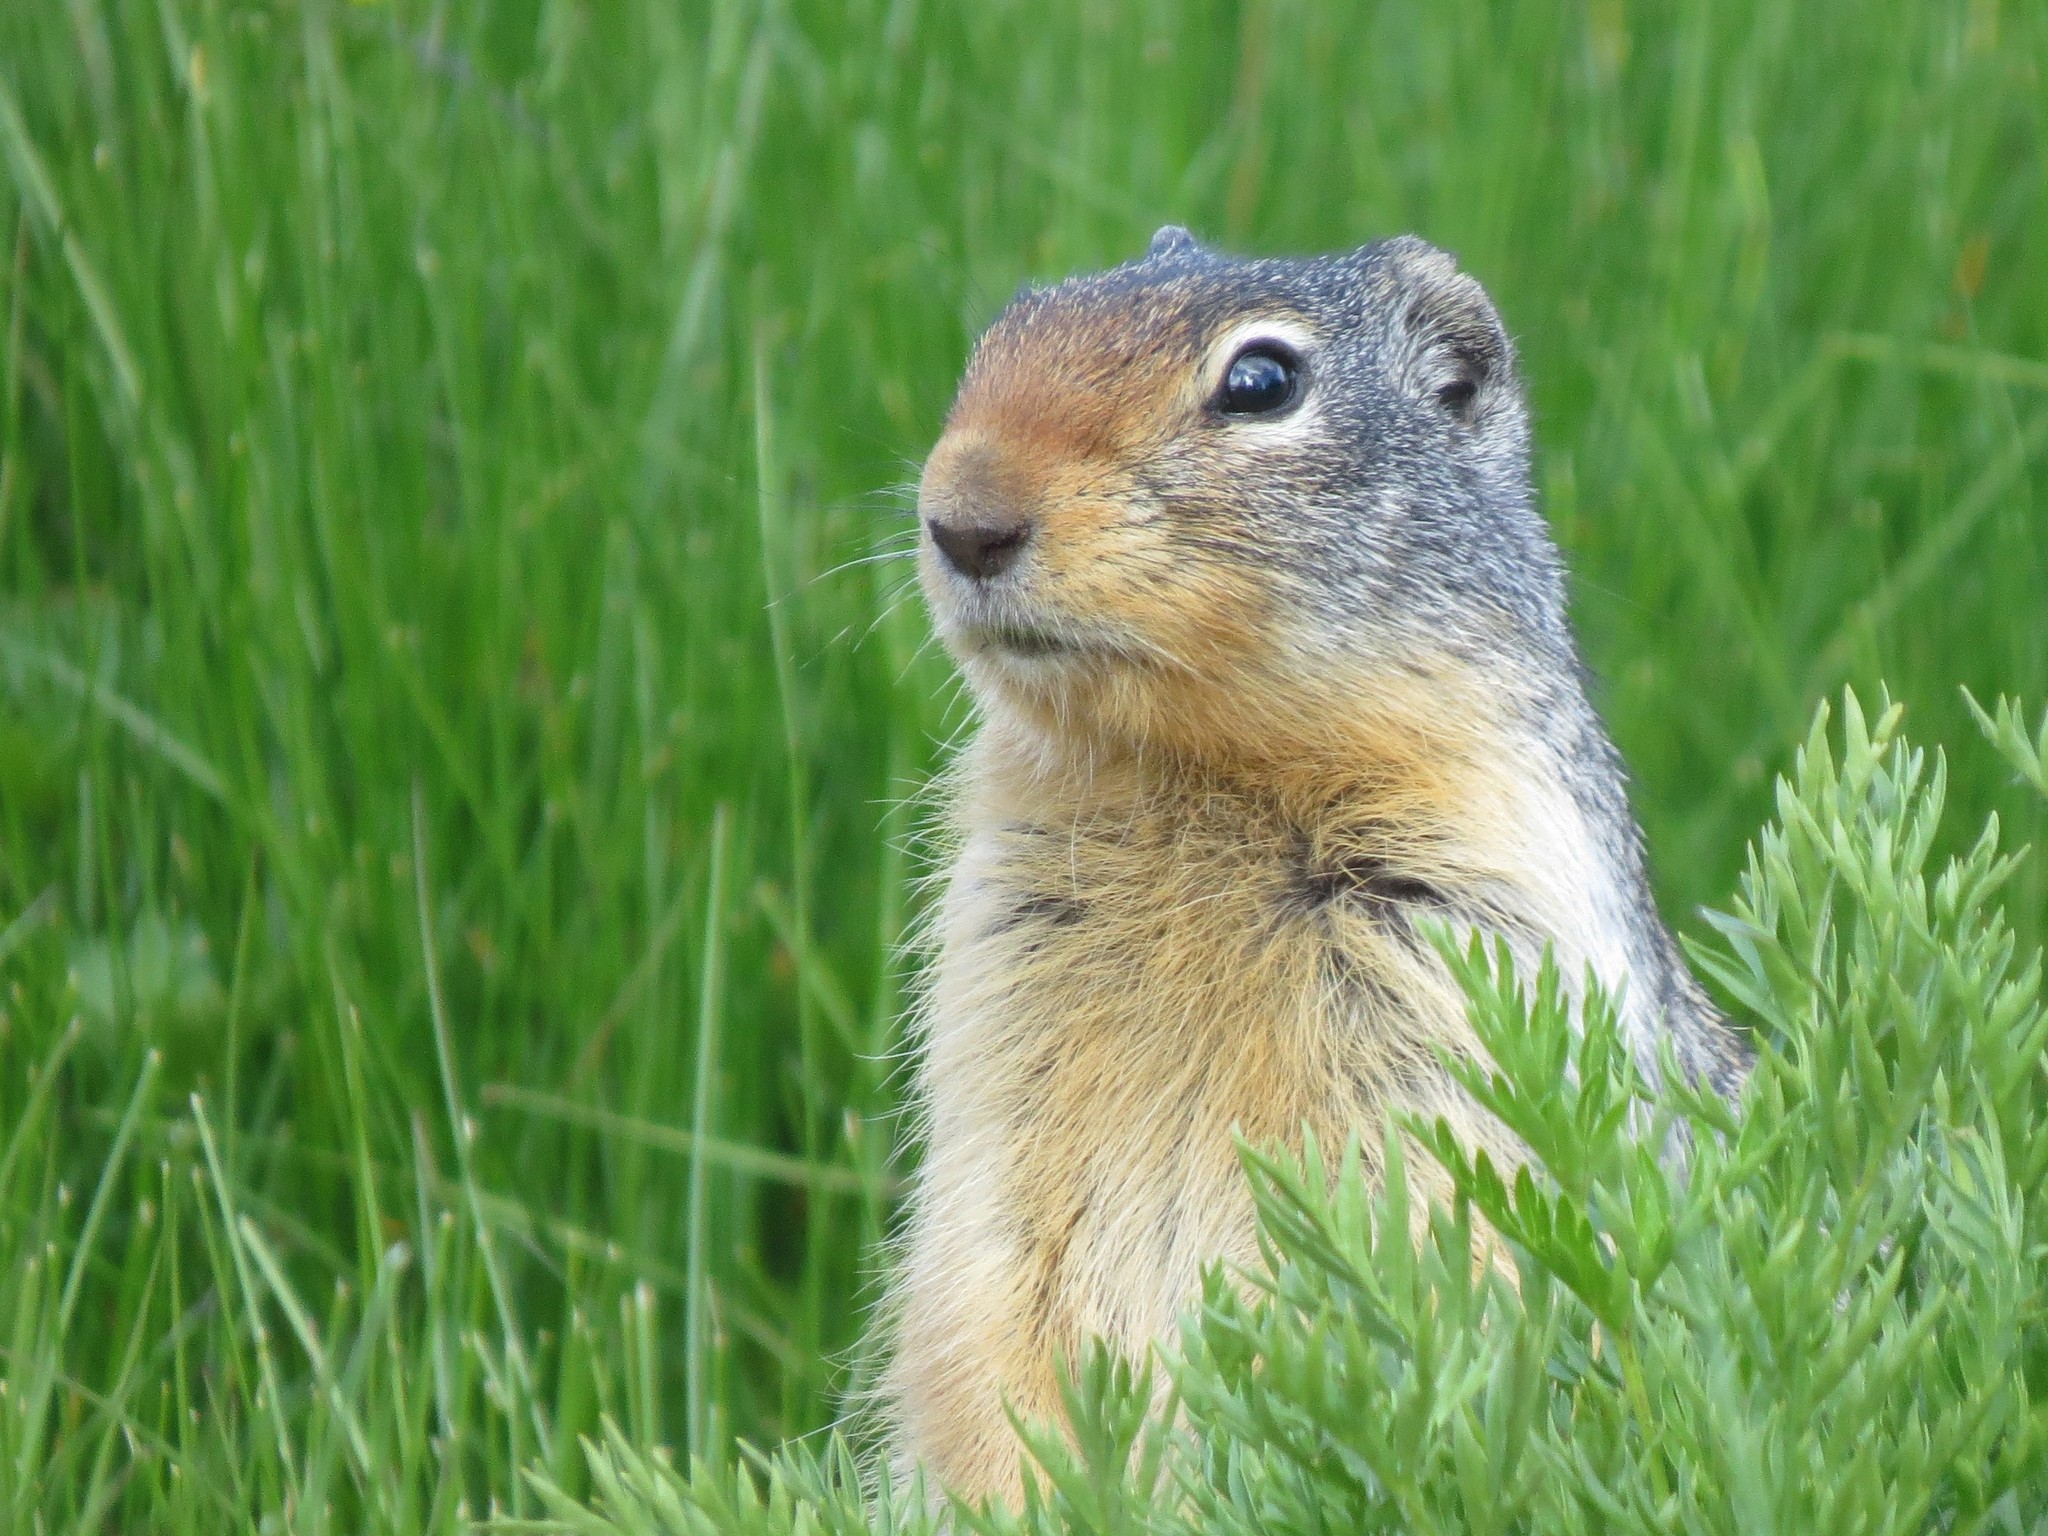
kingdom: Animalia
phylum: Chordata
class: Mammalia
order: Rodentia
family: Sciuridae
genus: Urocitellus
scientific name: Urocitellus columbianus
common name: Columbian ground squirrel
